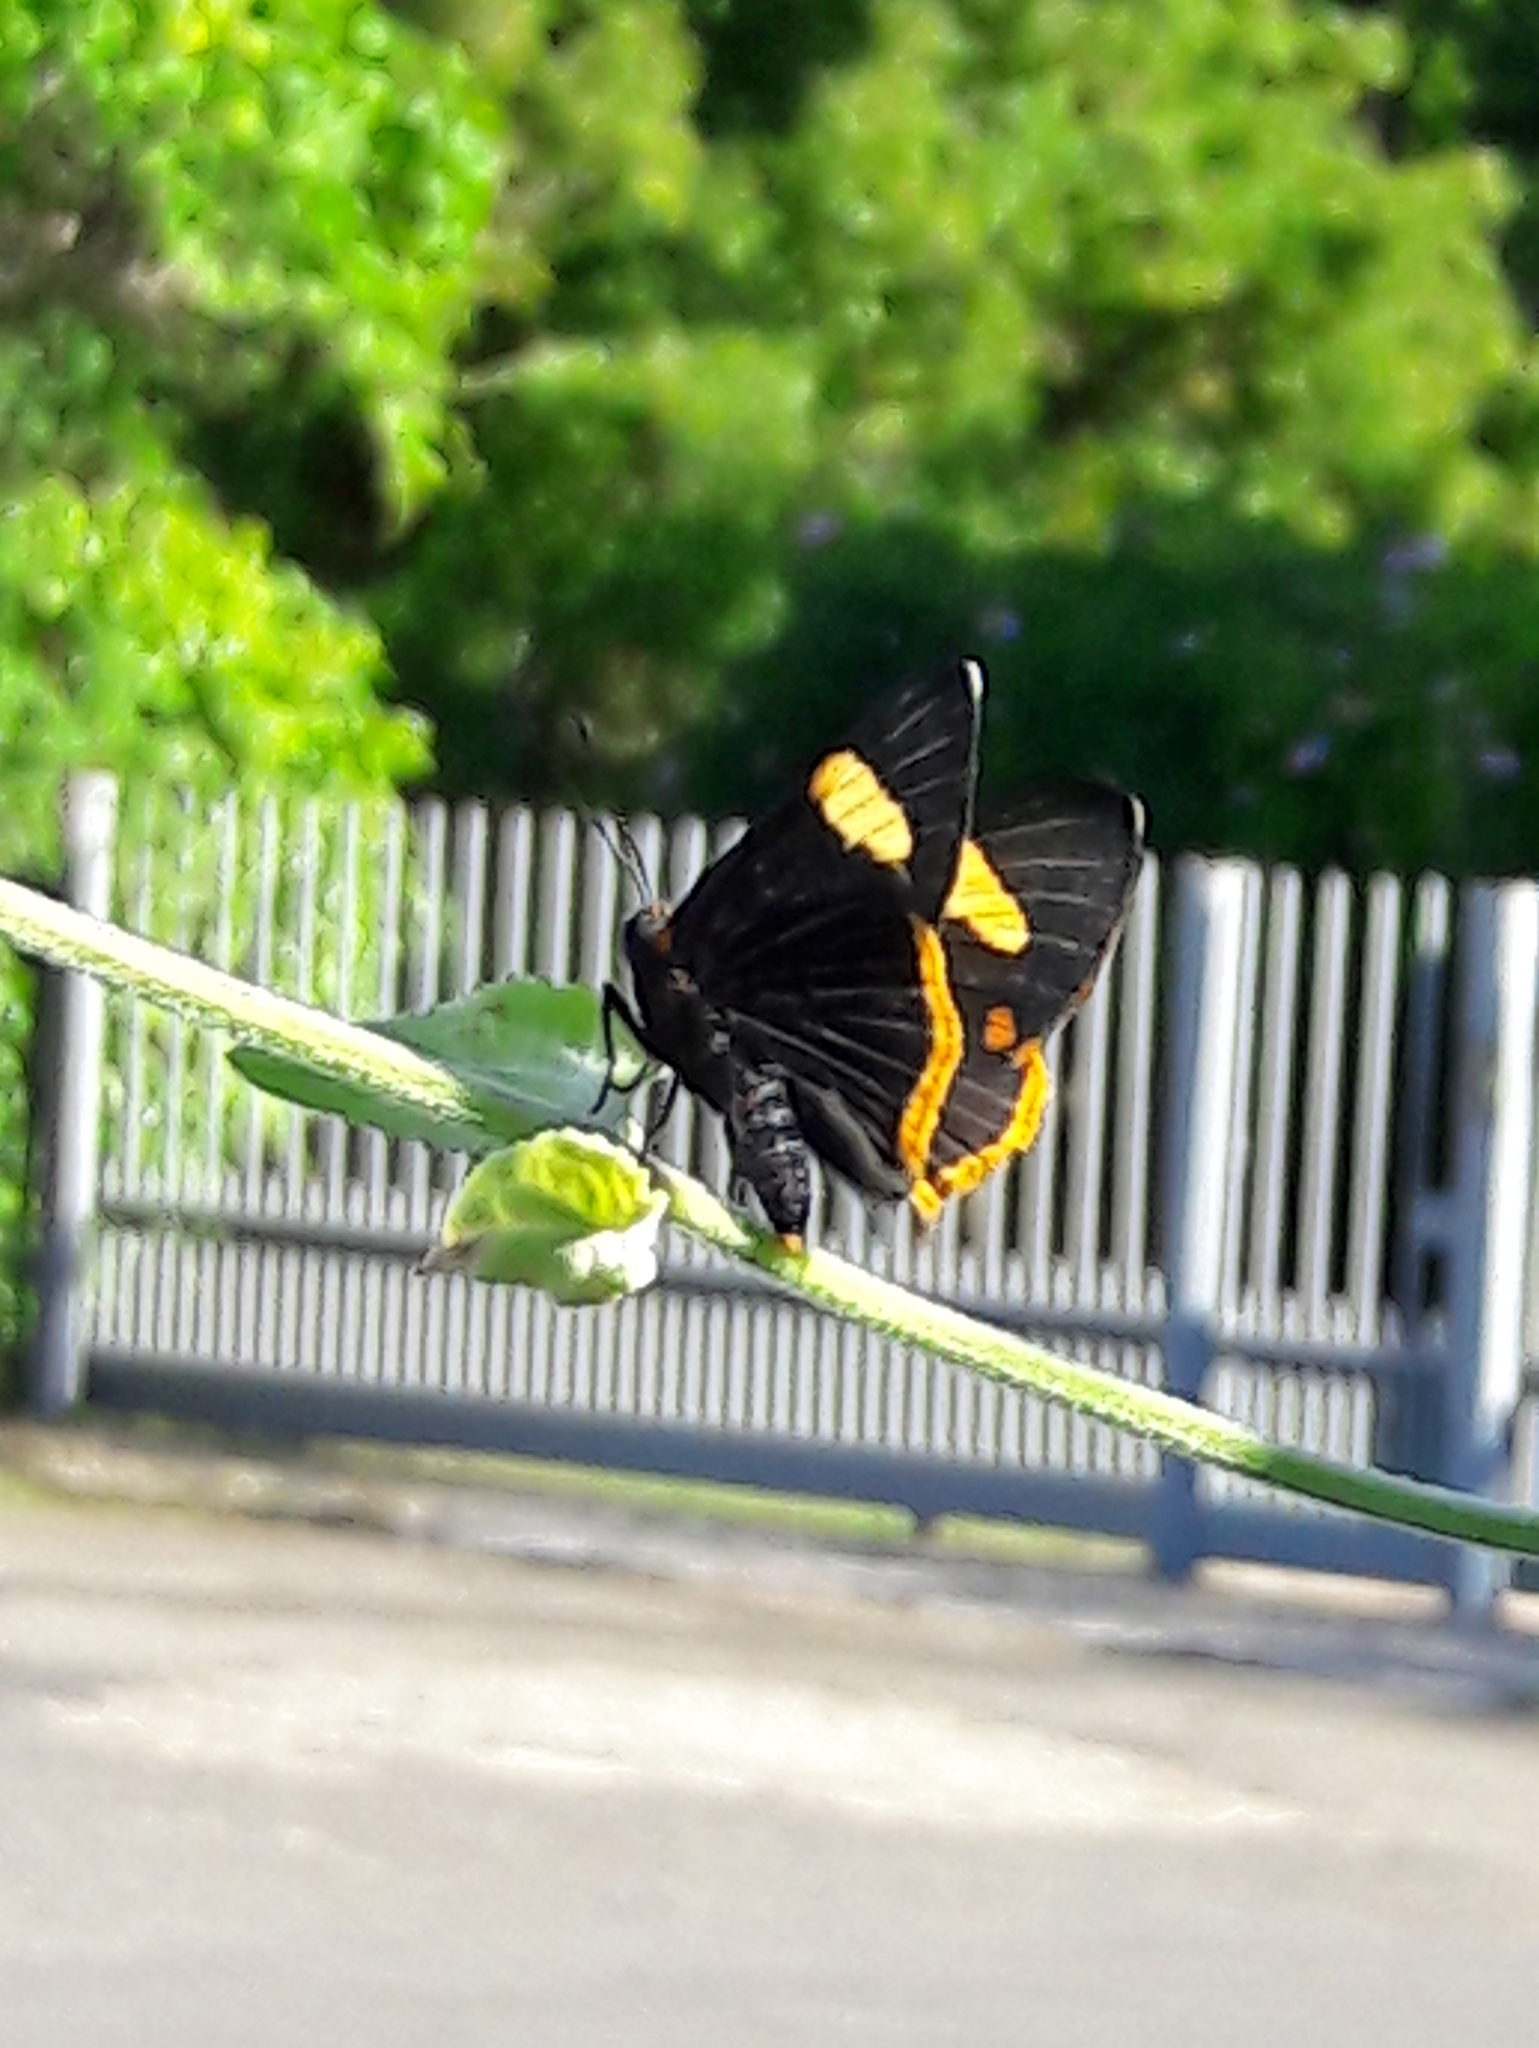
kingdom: Animalia
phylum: Arthropoda
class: Insecta
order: Lepidoptera
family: Riodinidae
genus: Riodina
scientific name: Riodina lycisca
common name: Lycisca metalmark
